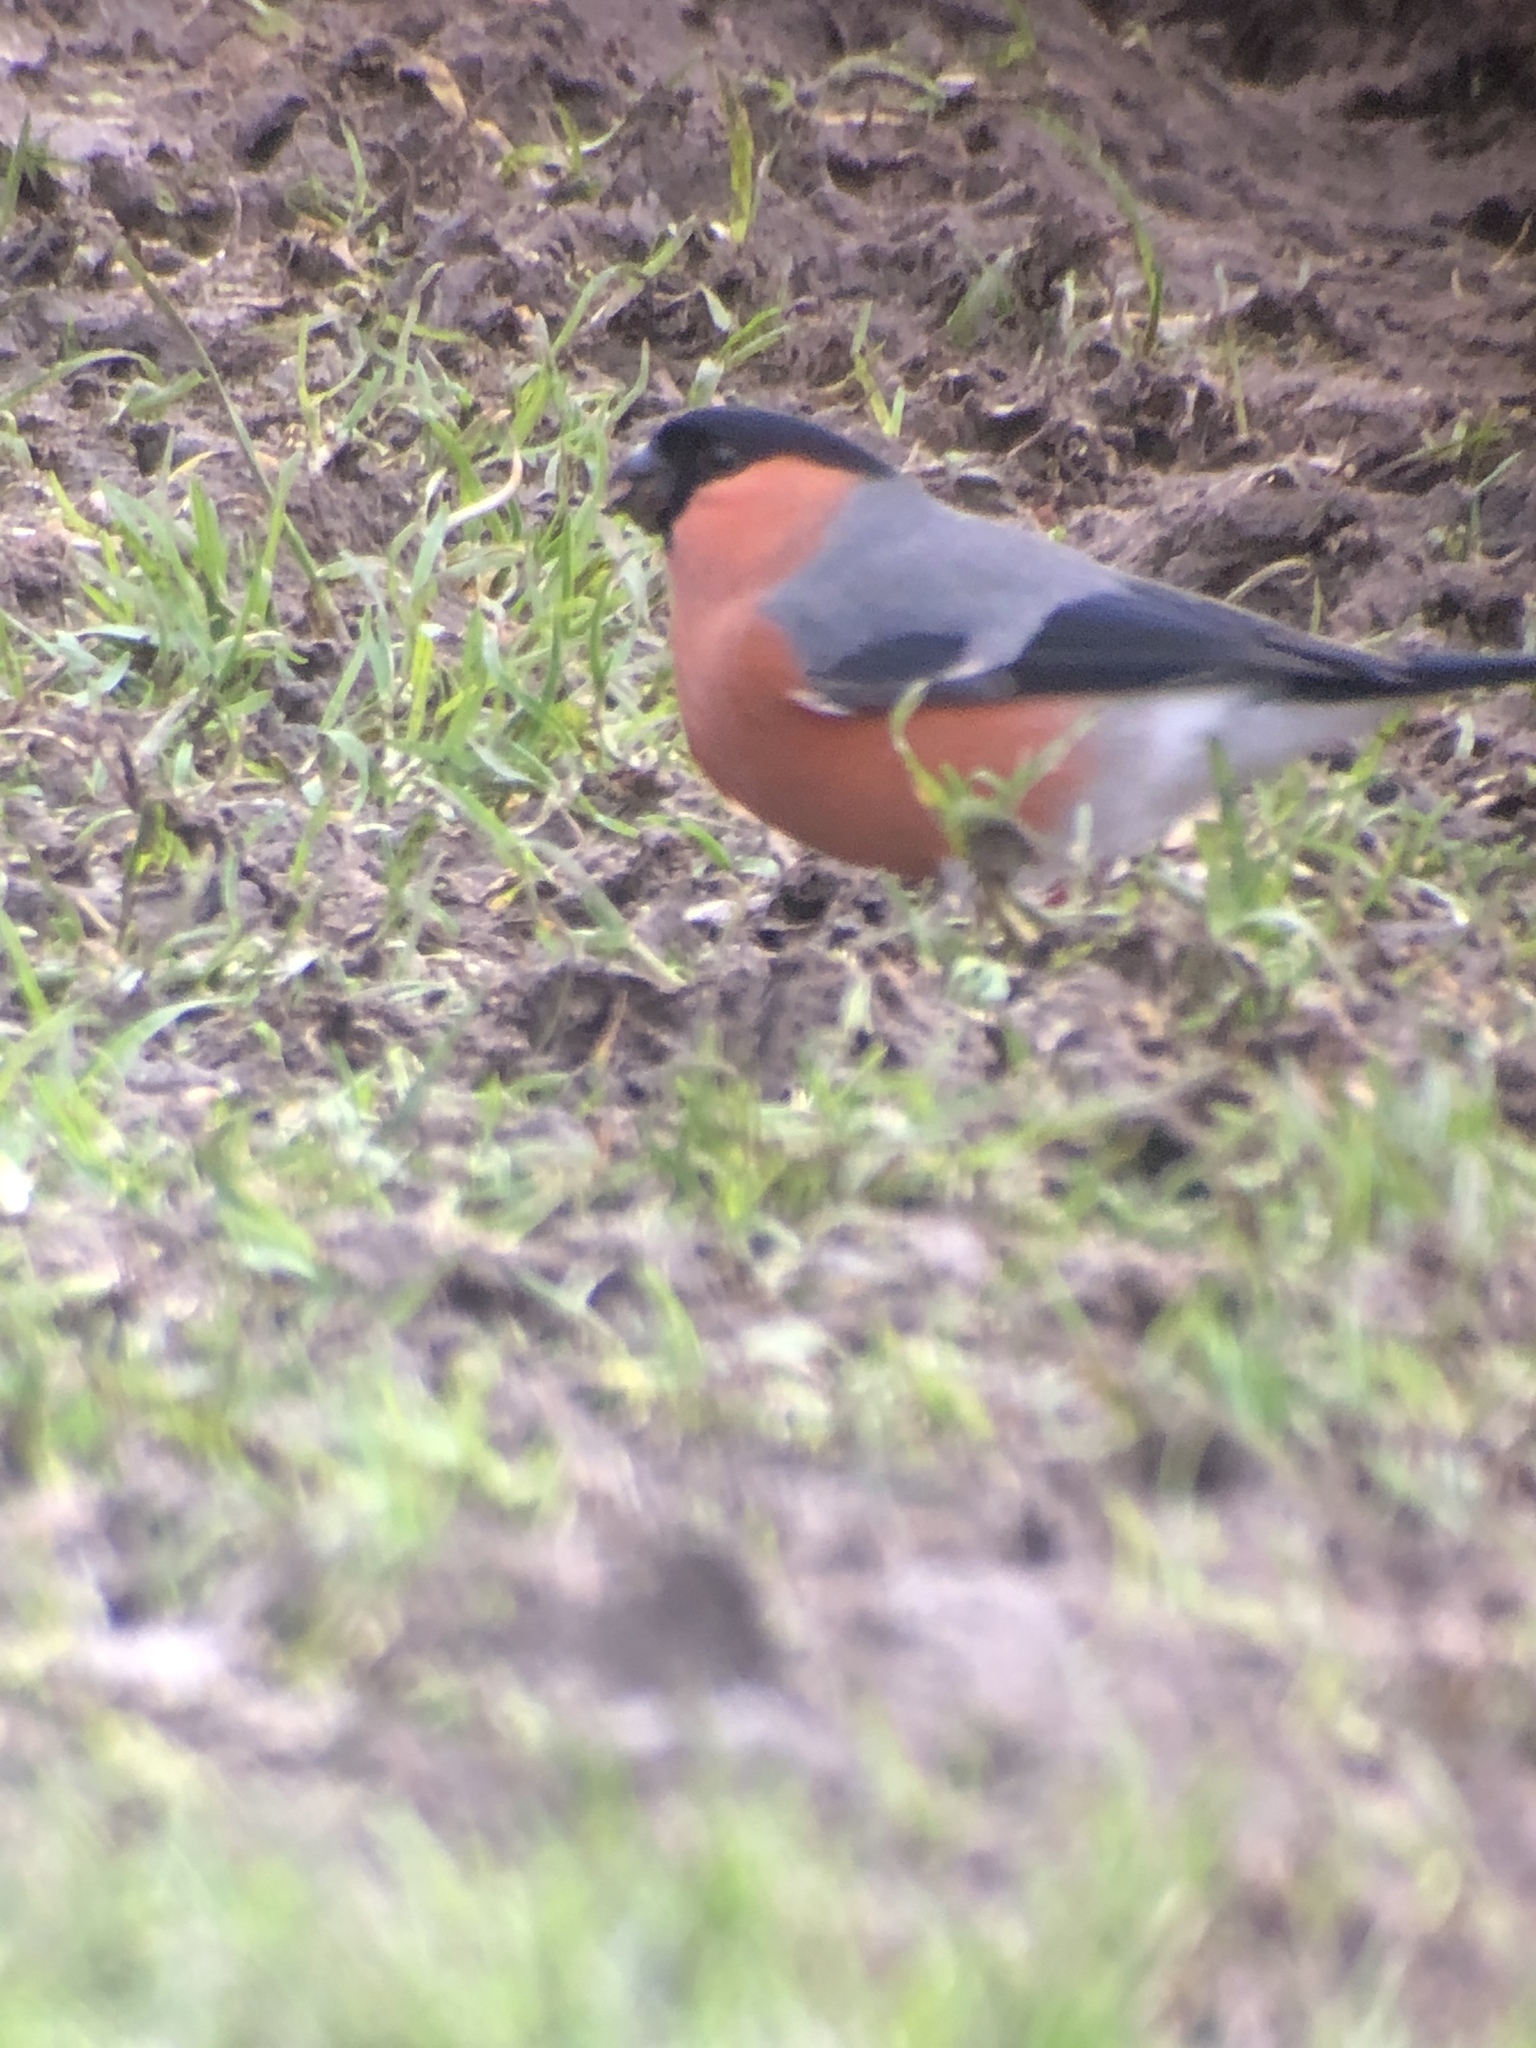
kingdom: Animalia
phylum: Chordata
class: Aves
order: Passeriformes
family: Fringillidae
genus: Pyrrhula
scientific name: Pyrrhula pyrrhula
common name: Eurasian bullfinch
